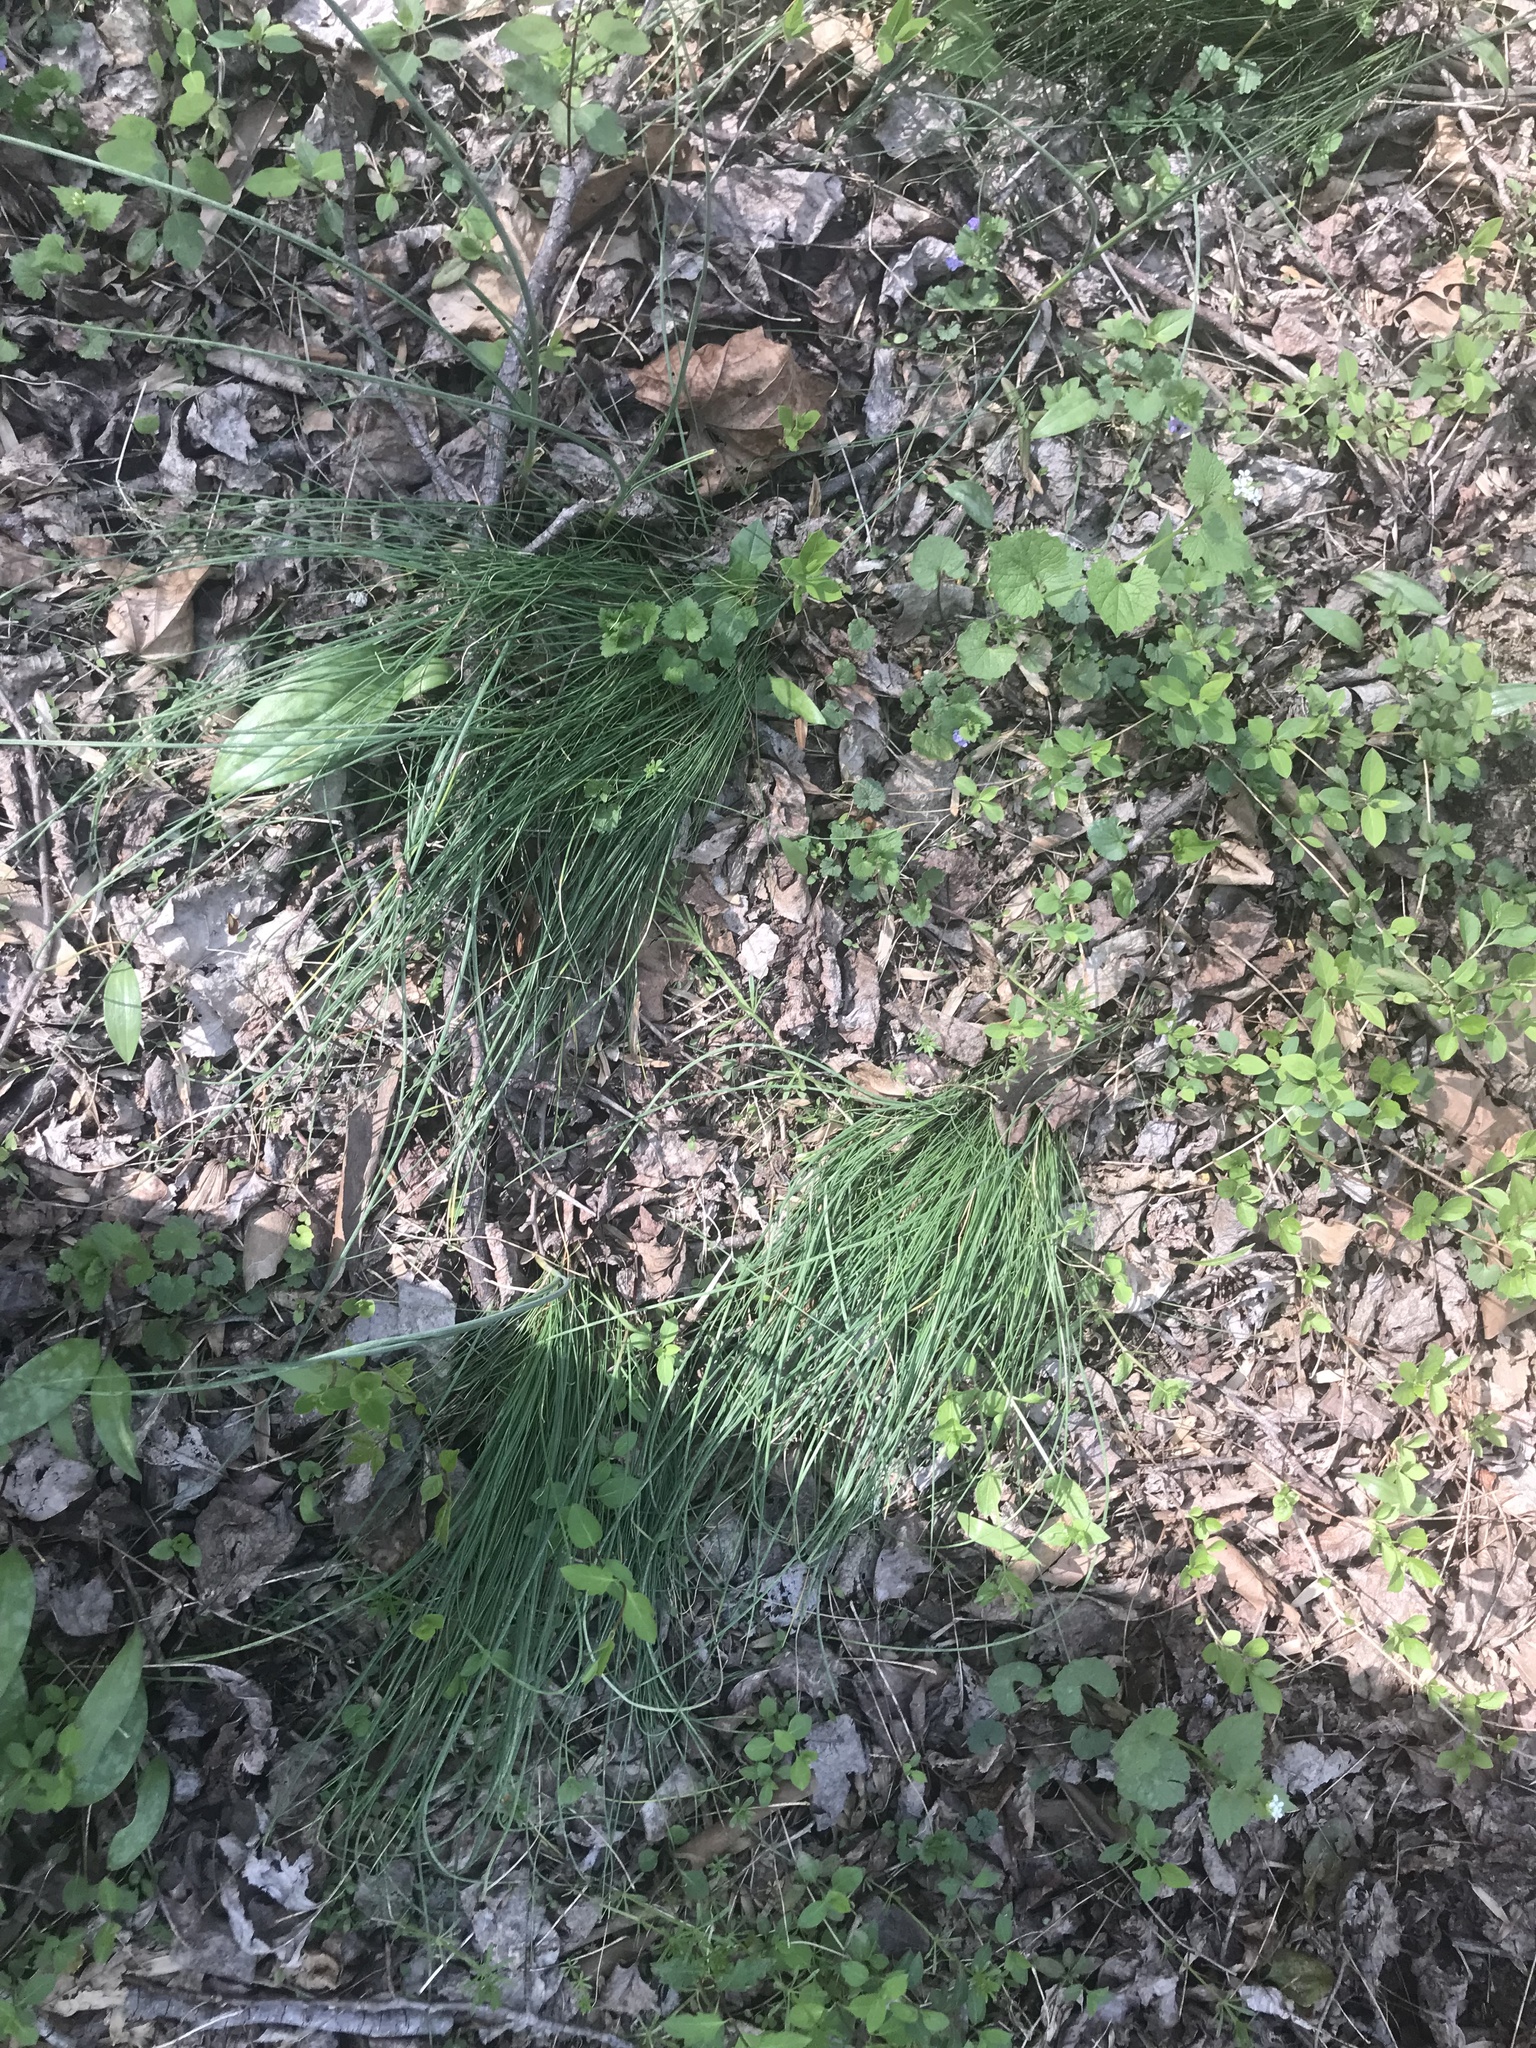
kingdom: Plantae
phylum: Tracheophyta
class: Liliopsida
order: Asparagales
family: Amaryllidaceae
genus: Allium
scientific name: Allium vineale
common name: Crow garlic
